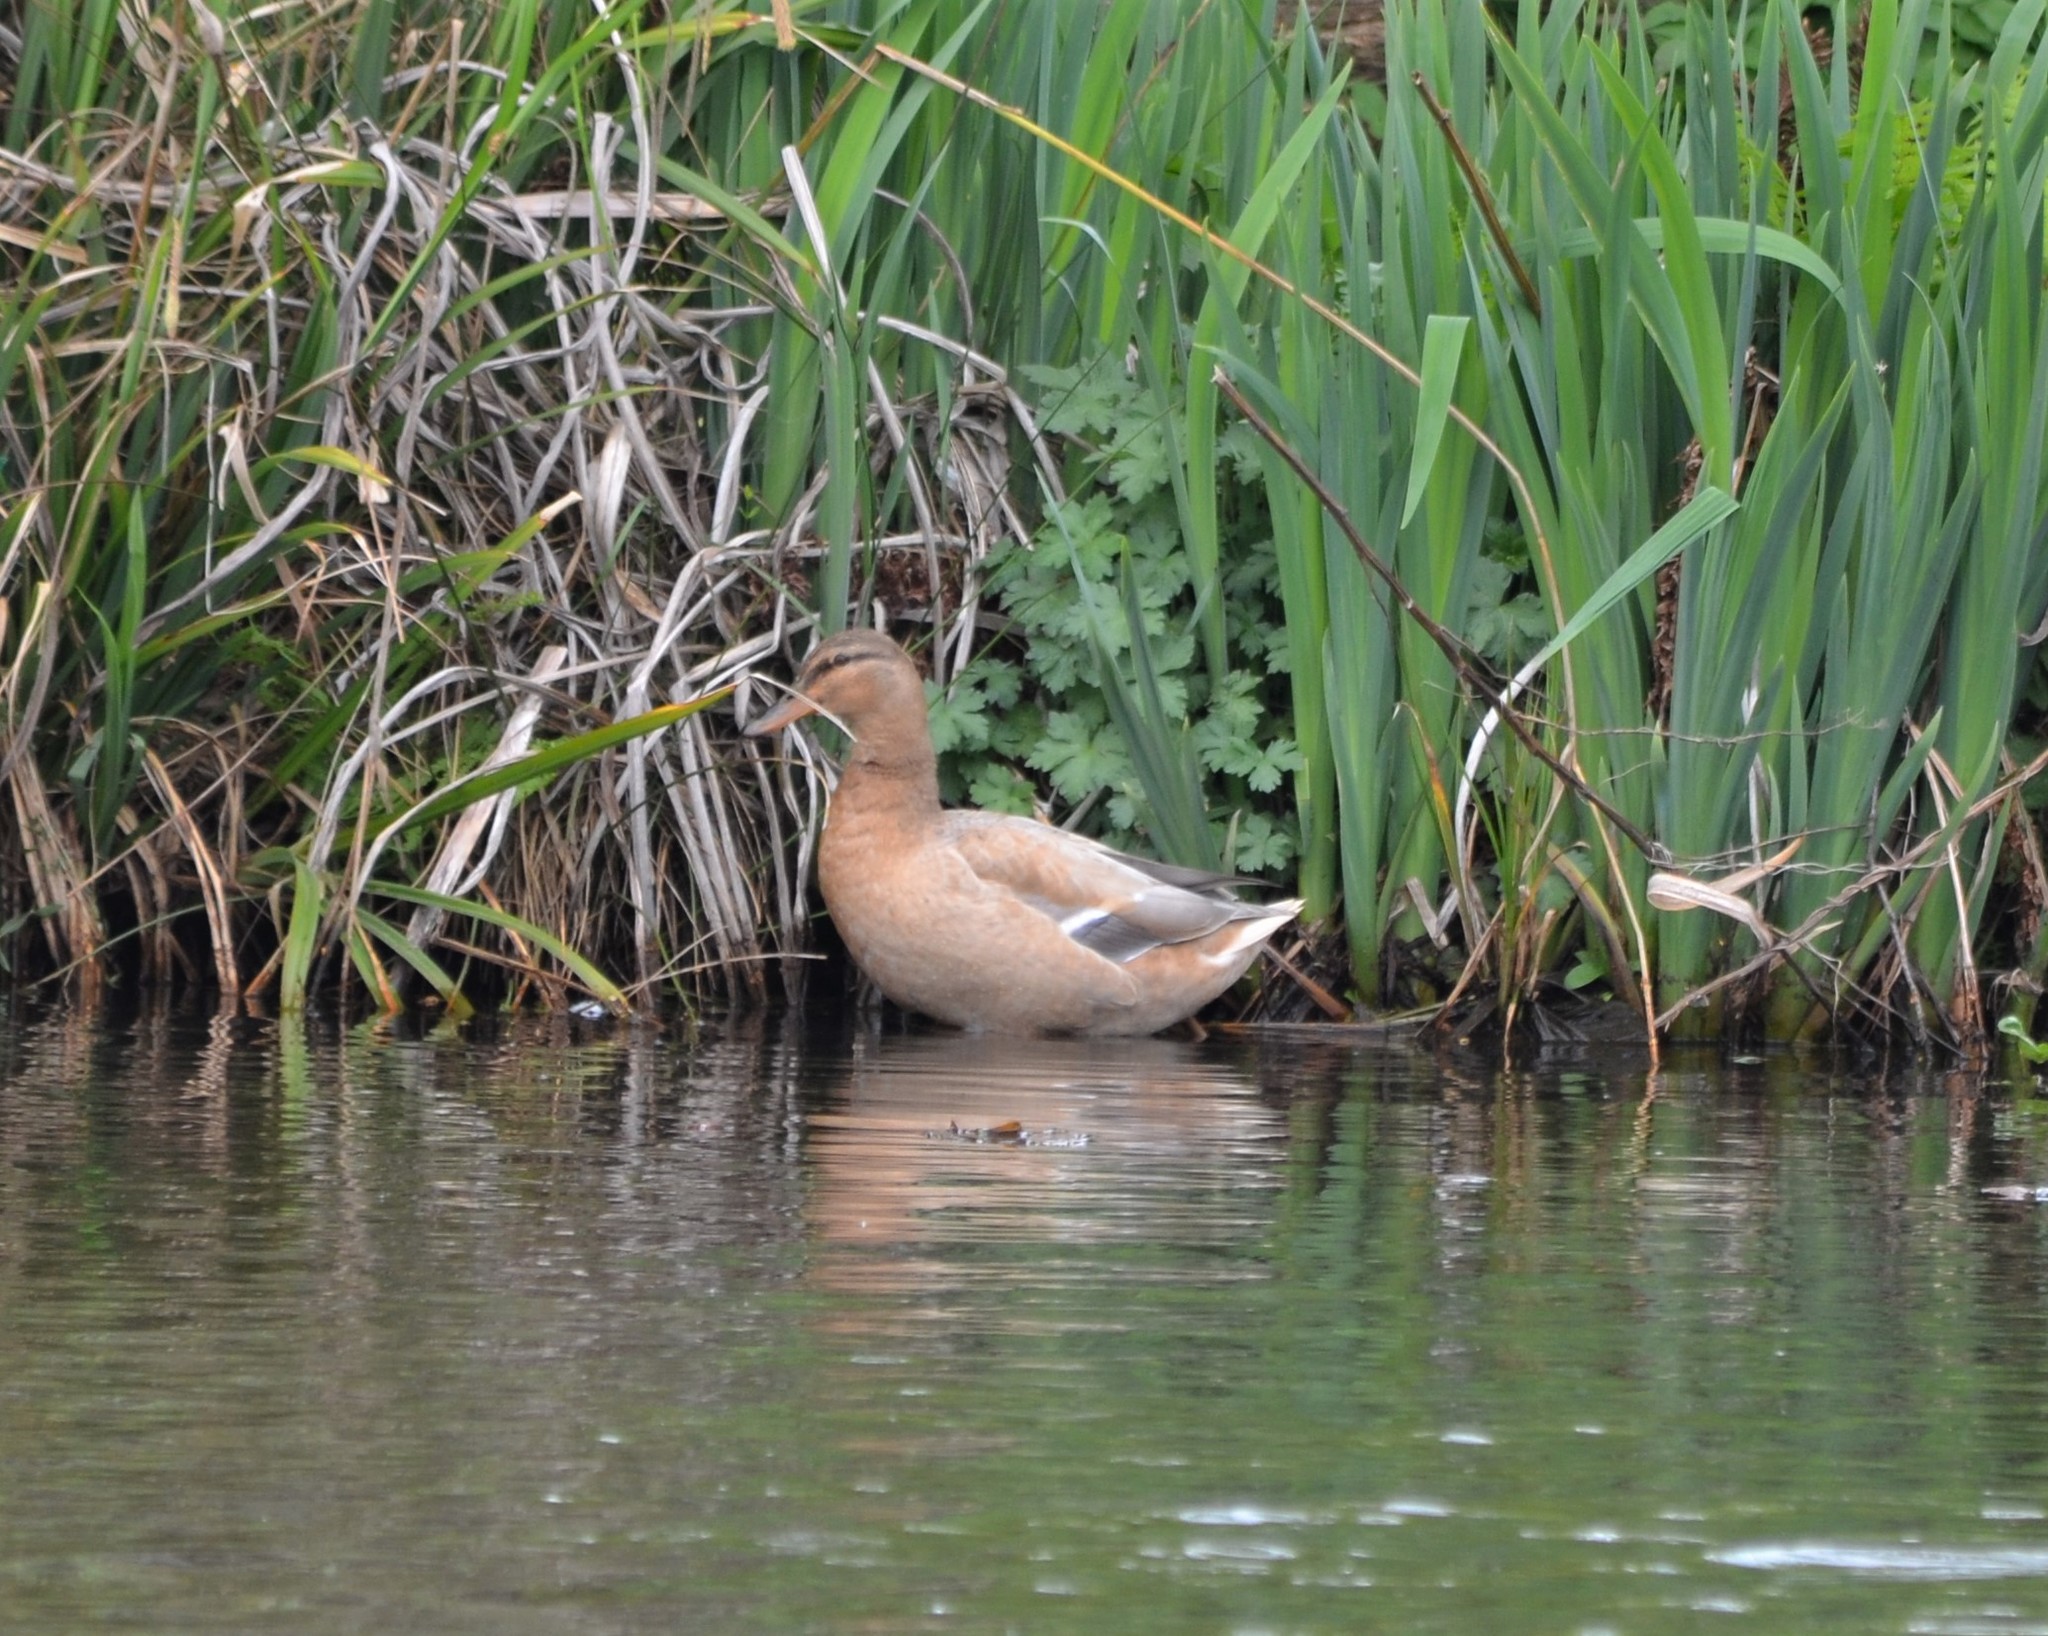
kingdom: Animalia
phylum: Chordata
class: Aves
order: Anseriformes
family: Anatidae
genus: Anas
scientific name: Anas platyrhynchos
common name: Mallard
